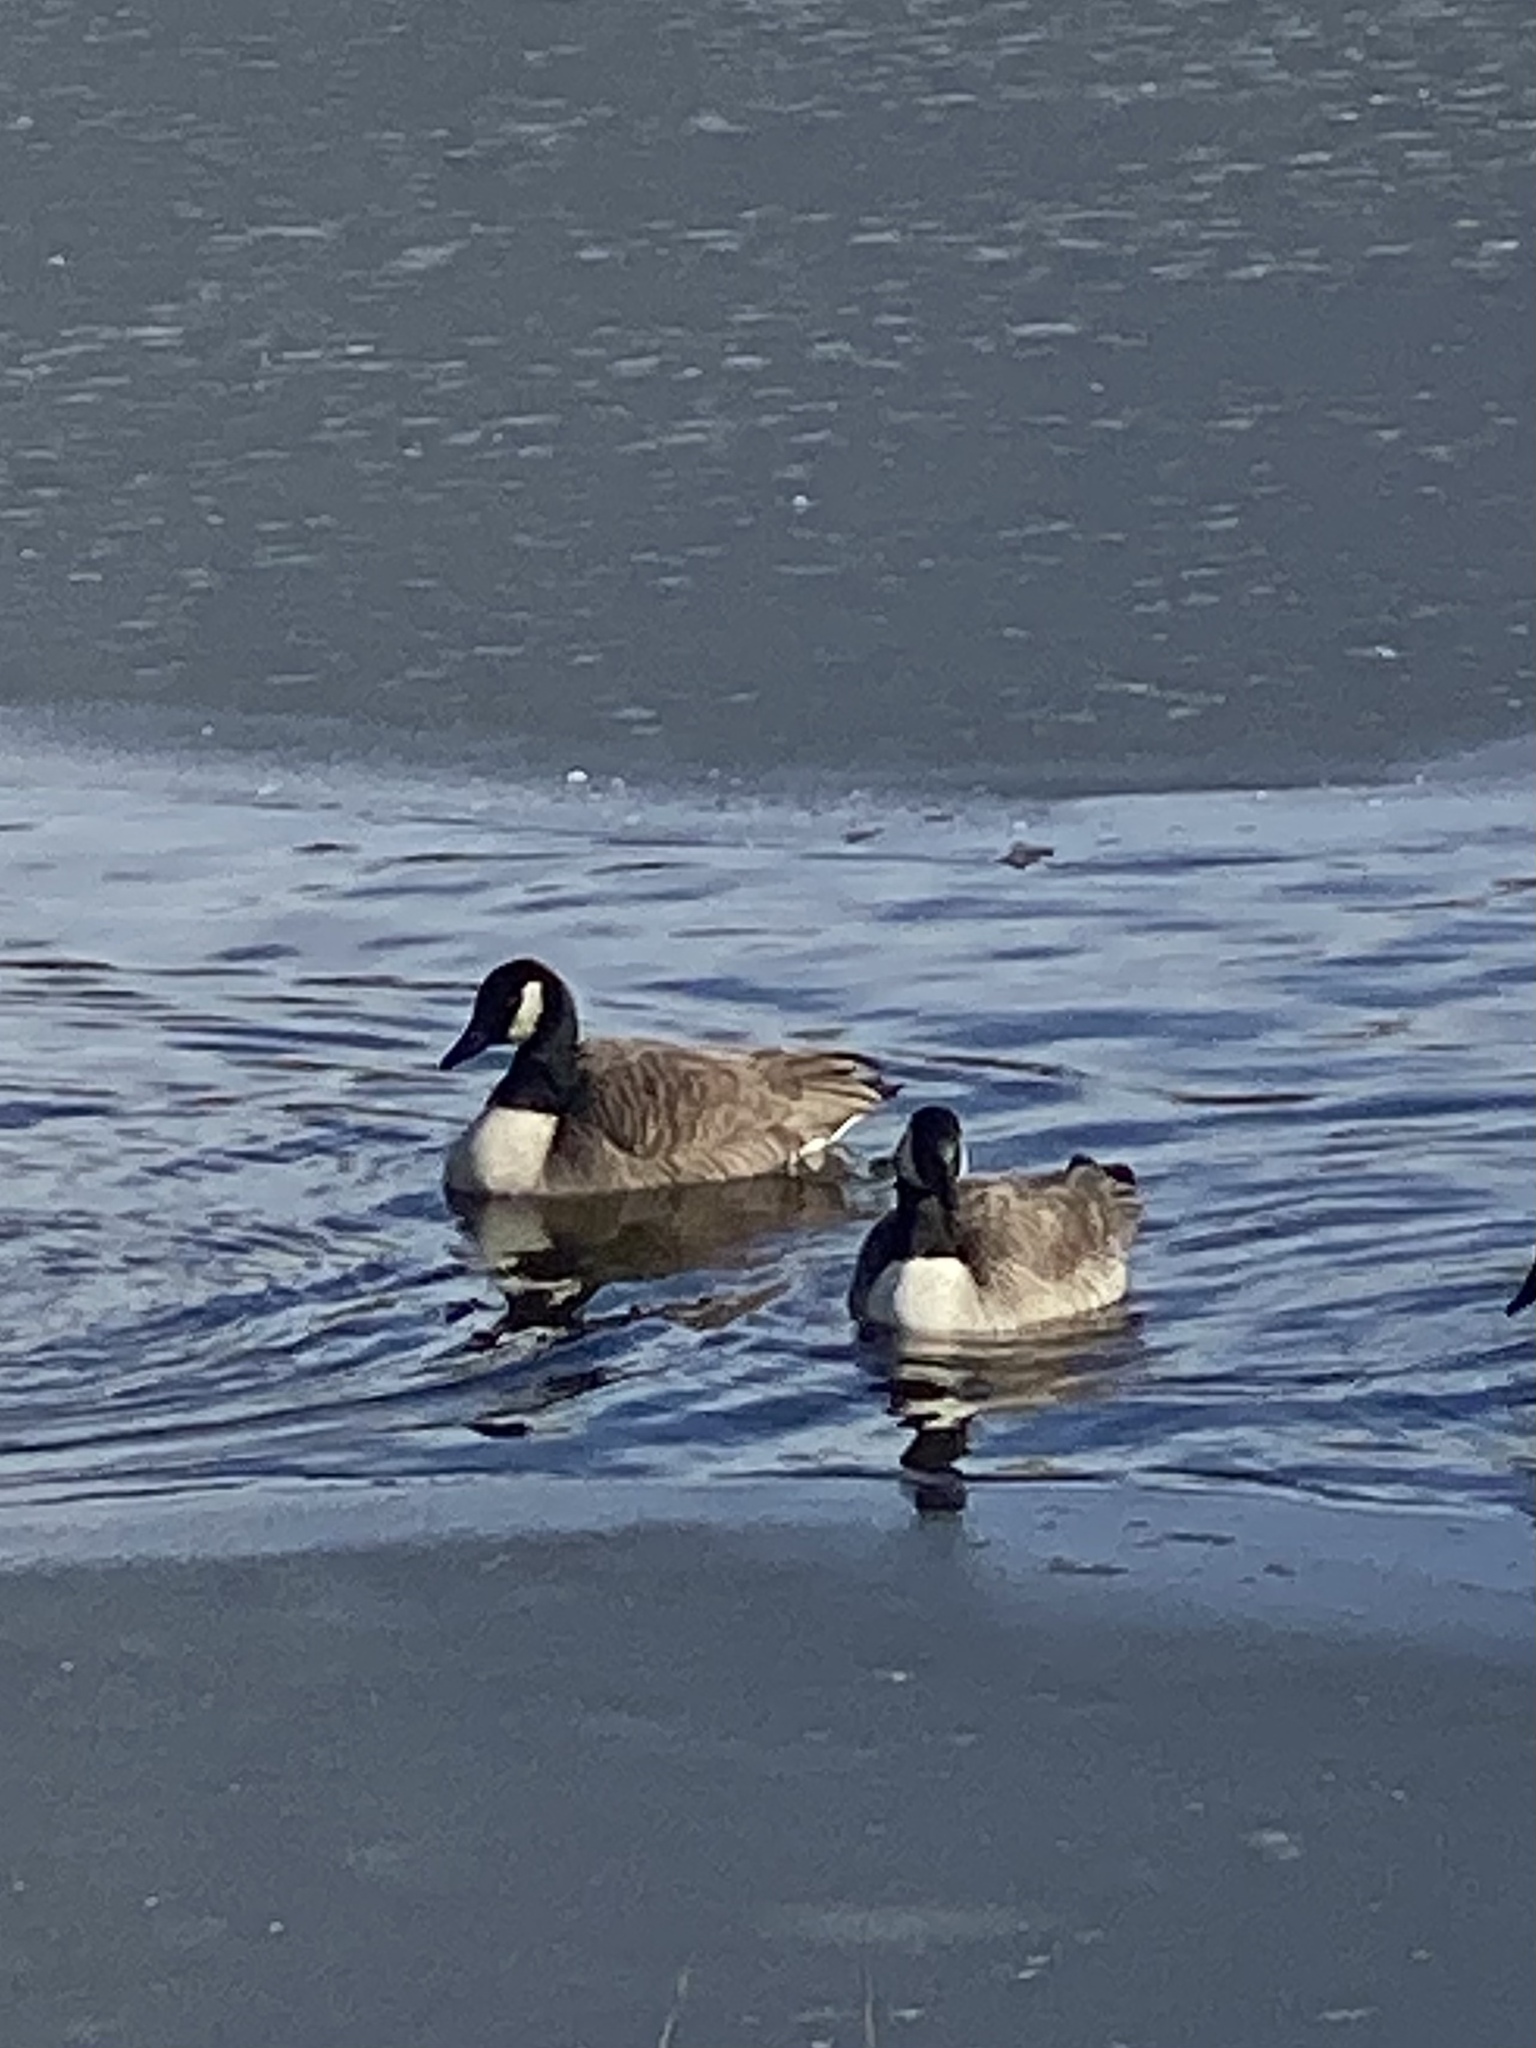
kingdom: Animalia
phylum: Chordata
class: Aves
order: Anseriformes
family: Anatidae
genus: Branta
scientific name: Branta canadensis
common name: Canada goose
